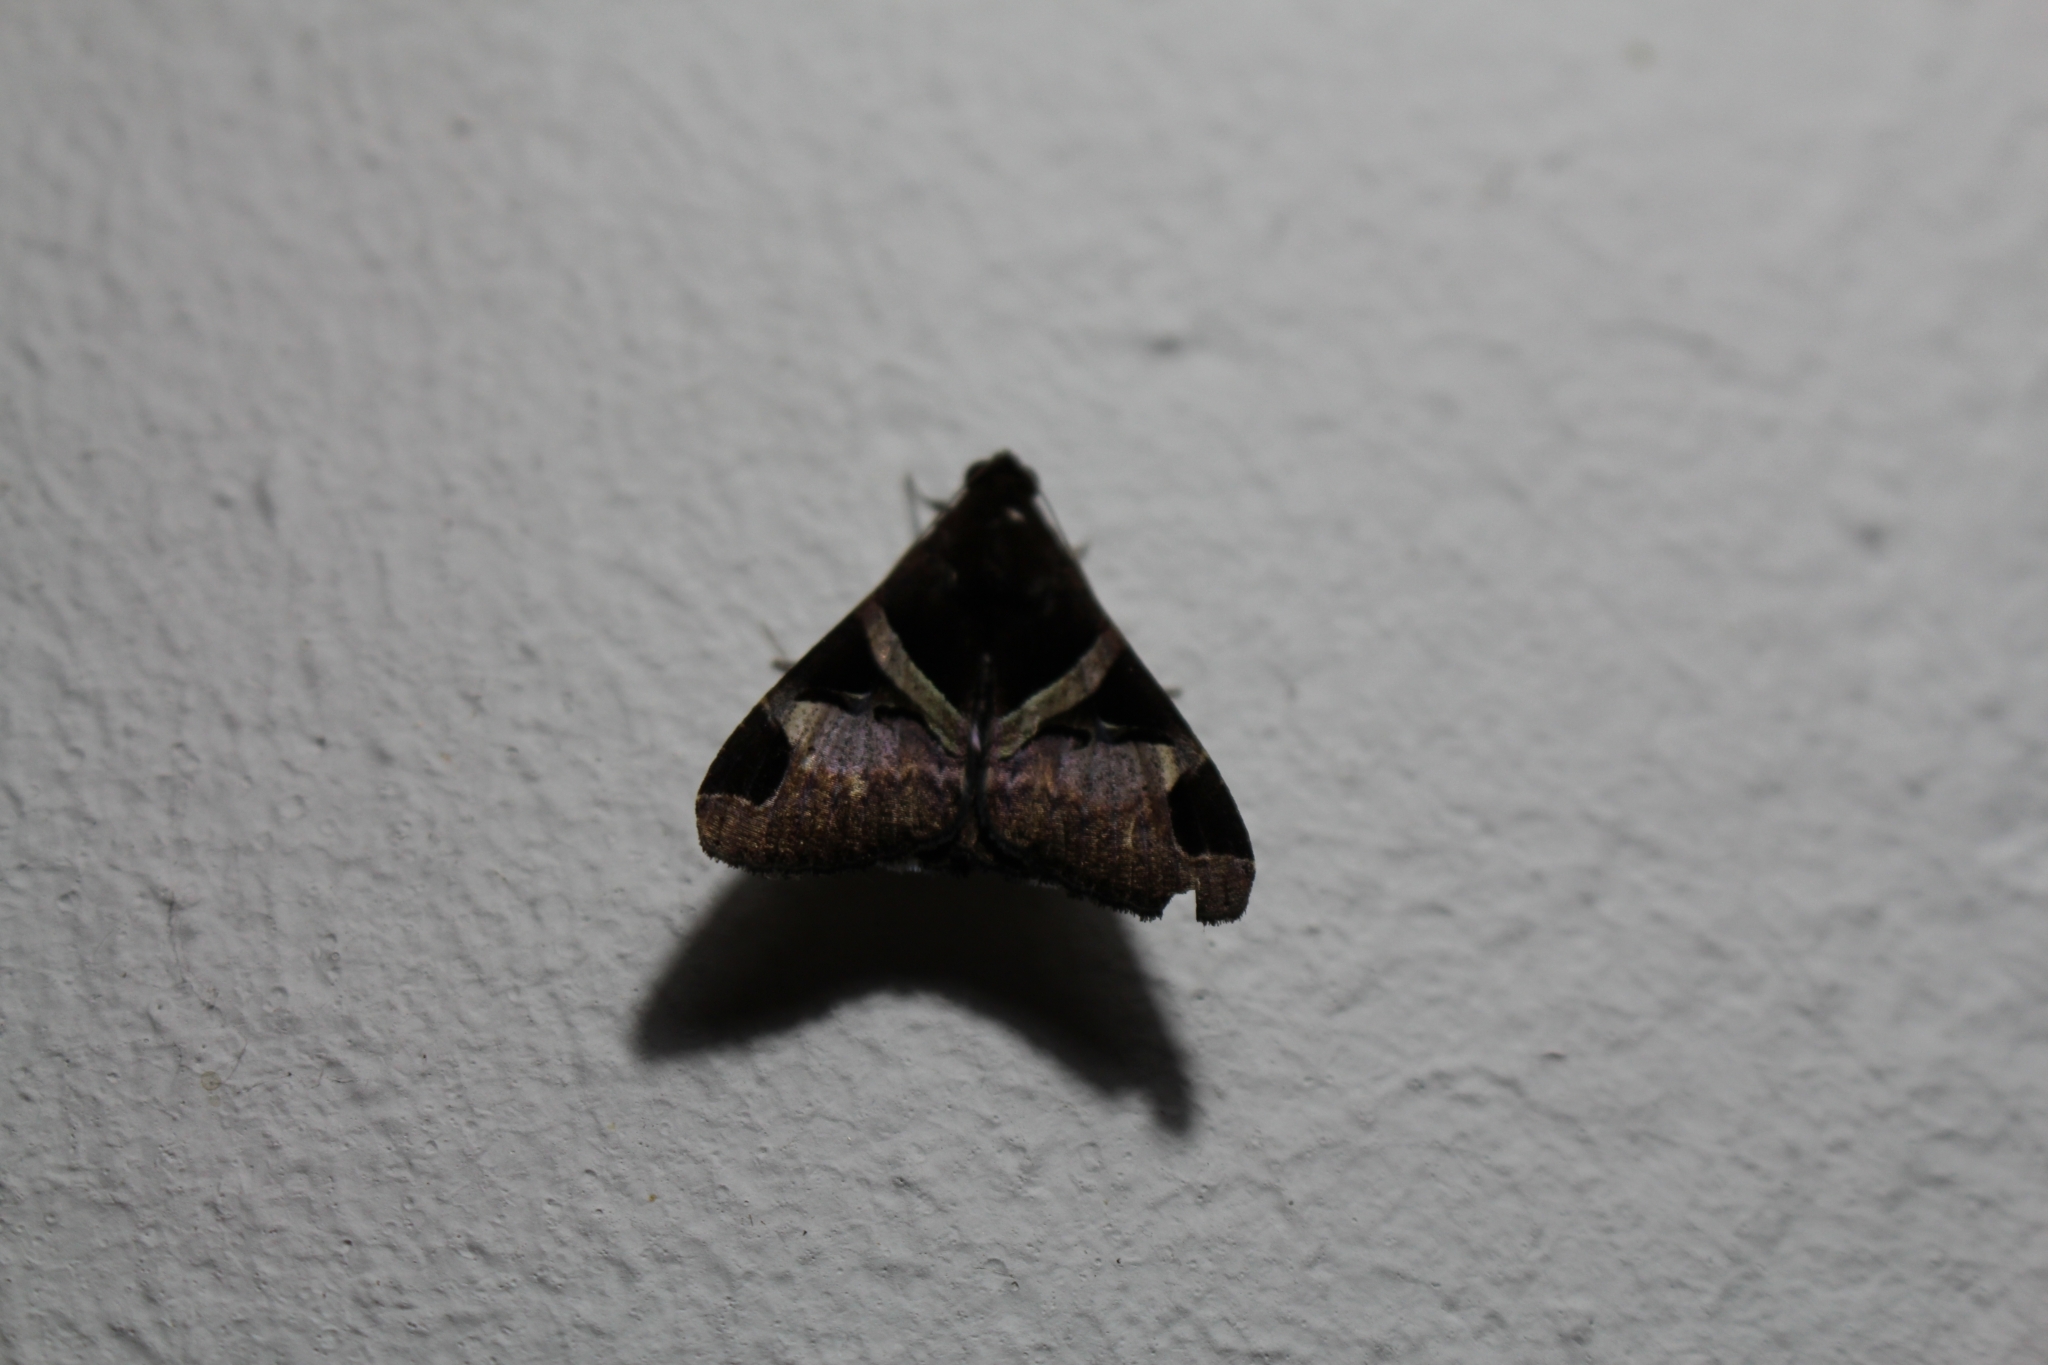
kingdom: Animalia
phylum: Arthropoda
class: Insecta
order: Lepidoptera
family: Erebidae
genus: Melipotis
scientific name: Melipotis fasciolaris
